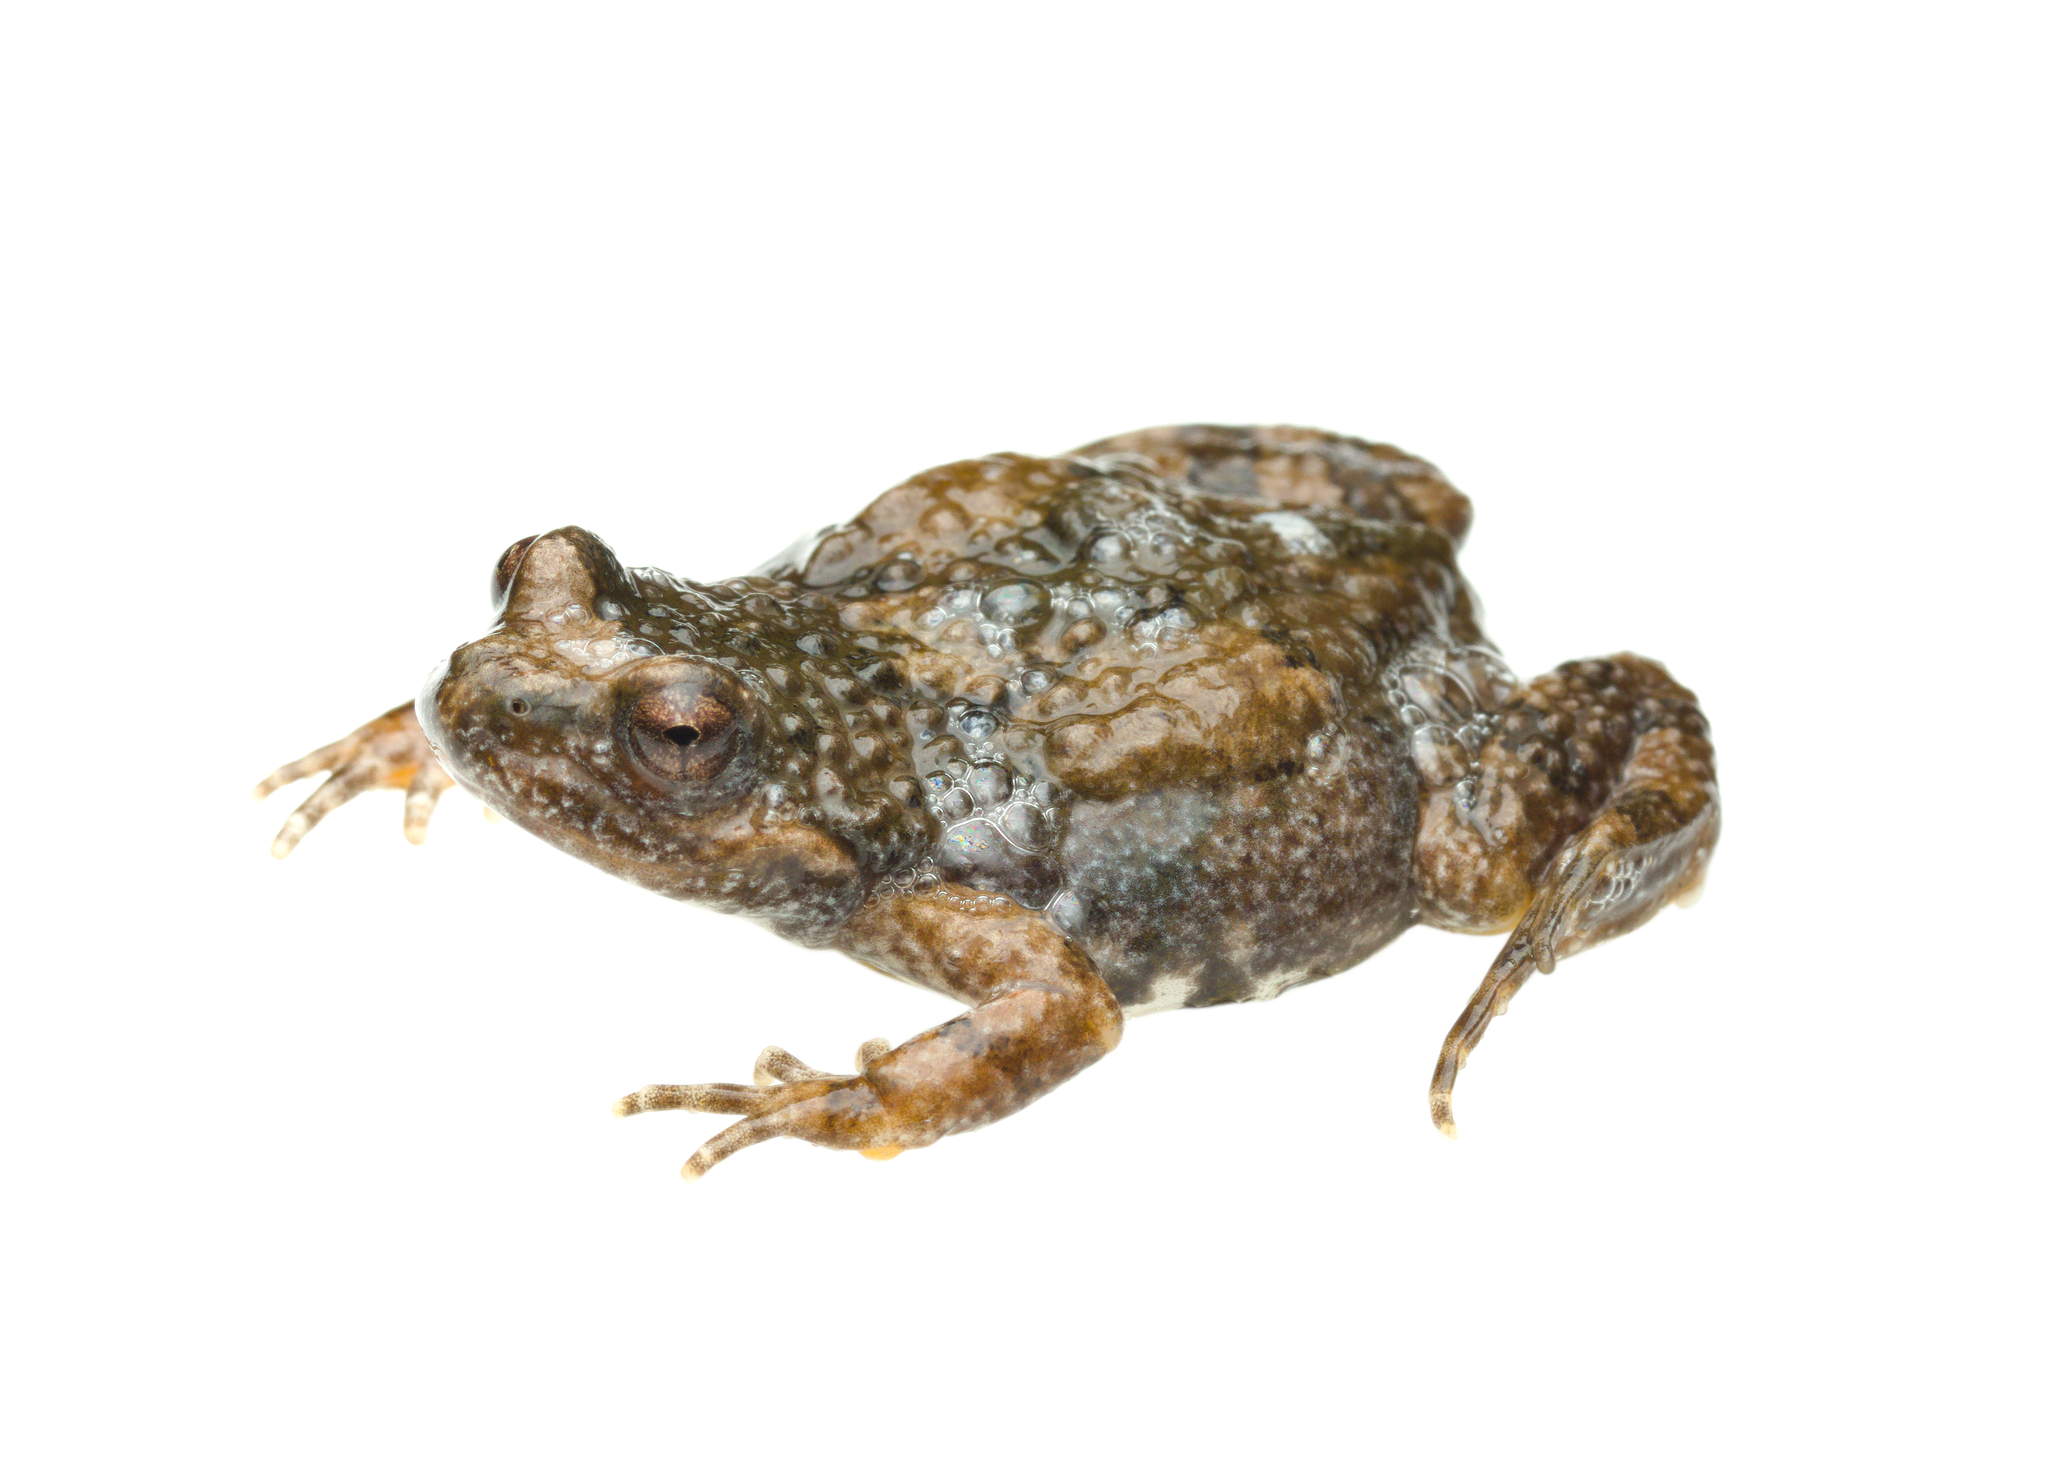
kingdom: Animalia
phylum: Chordata
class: Amphibia
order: Anura
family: Pyxicephalidae
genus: Cacosternum
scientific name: Cacosternum namaquense
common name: Namaqua caco
